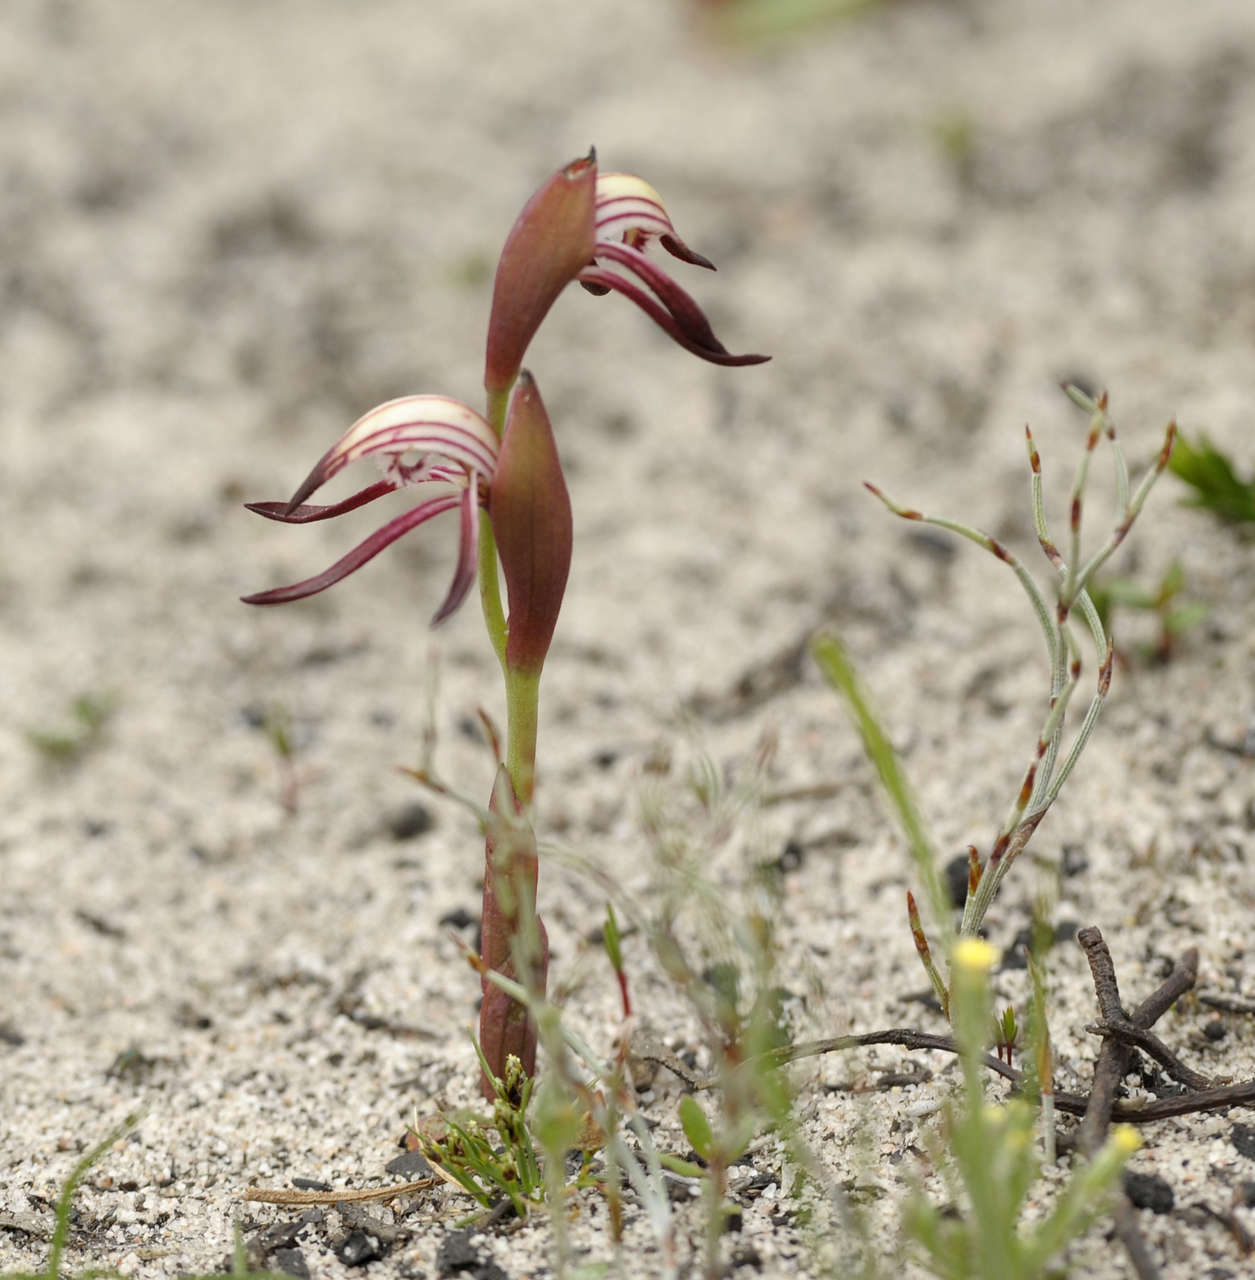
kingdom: Plantae
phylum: Tracheophyta
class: Liliopsida
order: Asparagales
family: Orchidaceae
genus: Pyrorchis
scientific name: Pyrorchis nigricans
